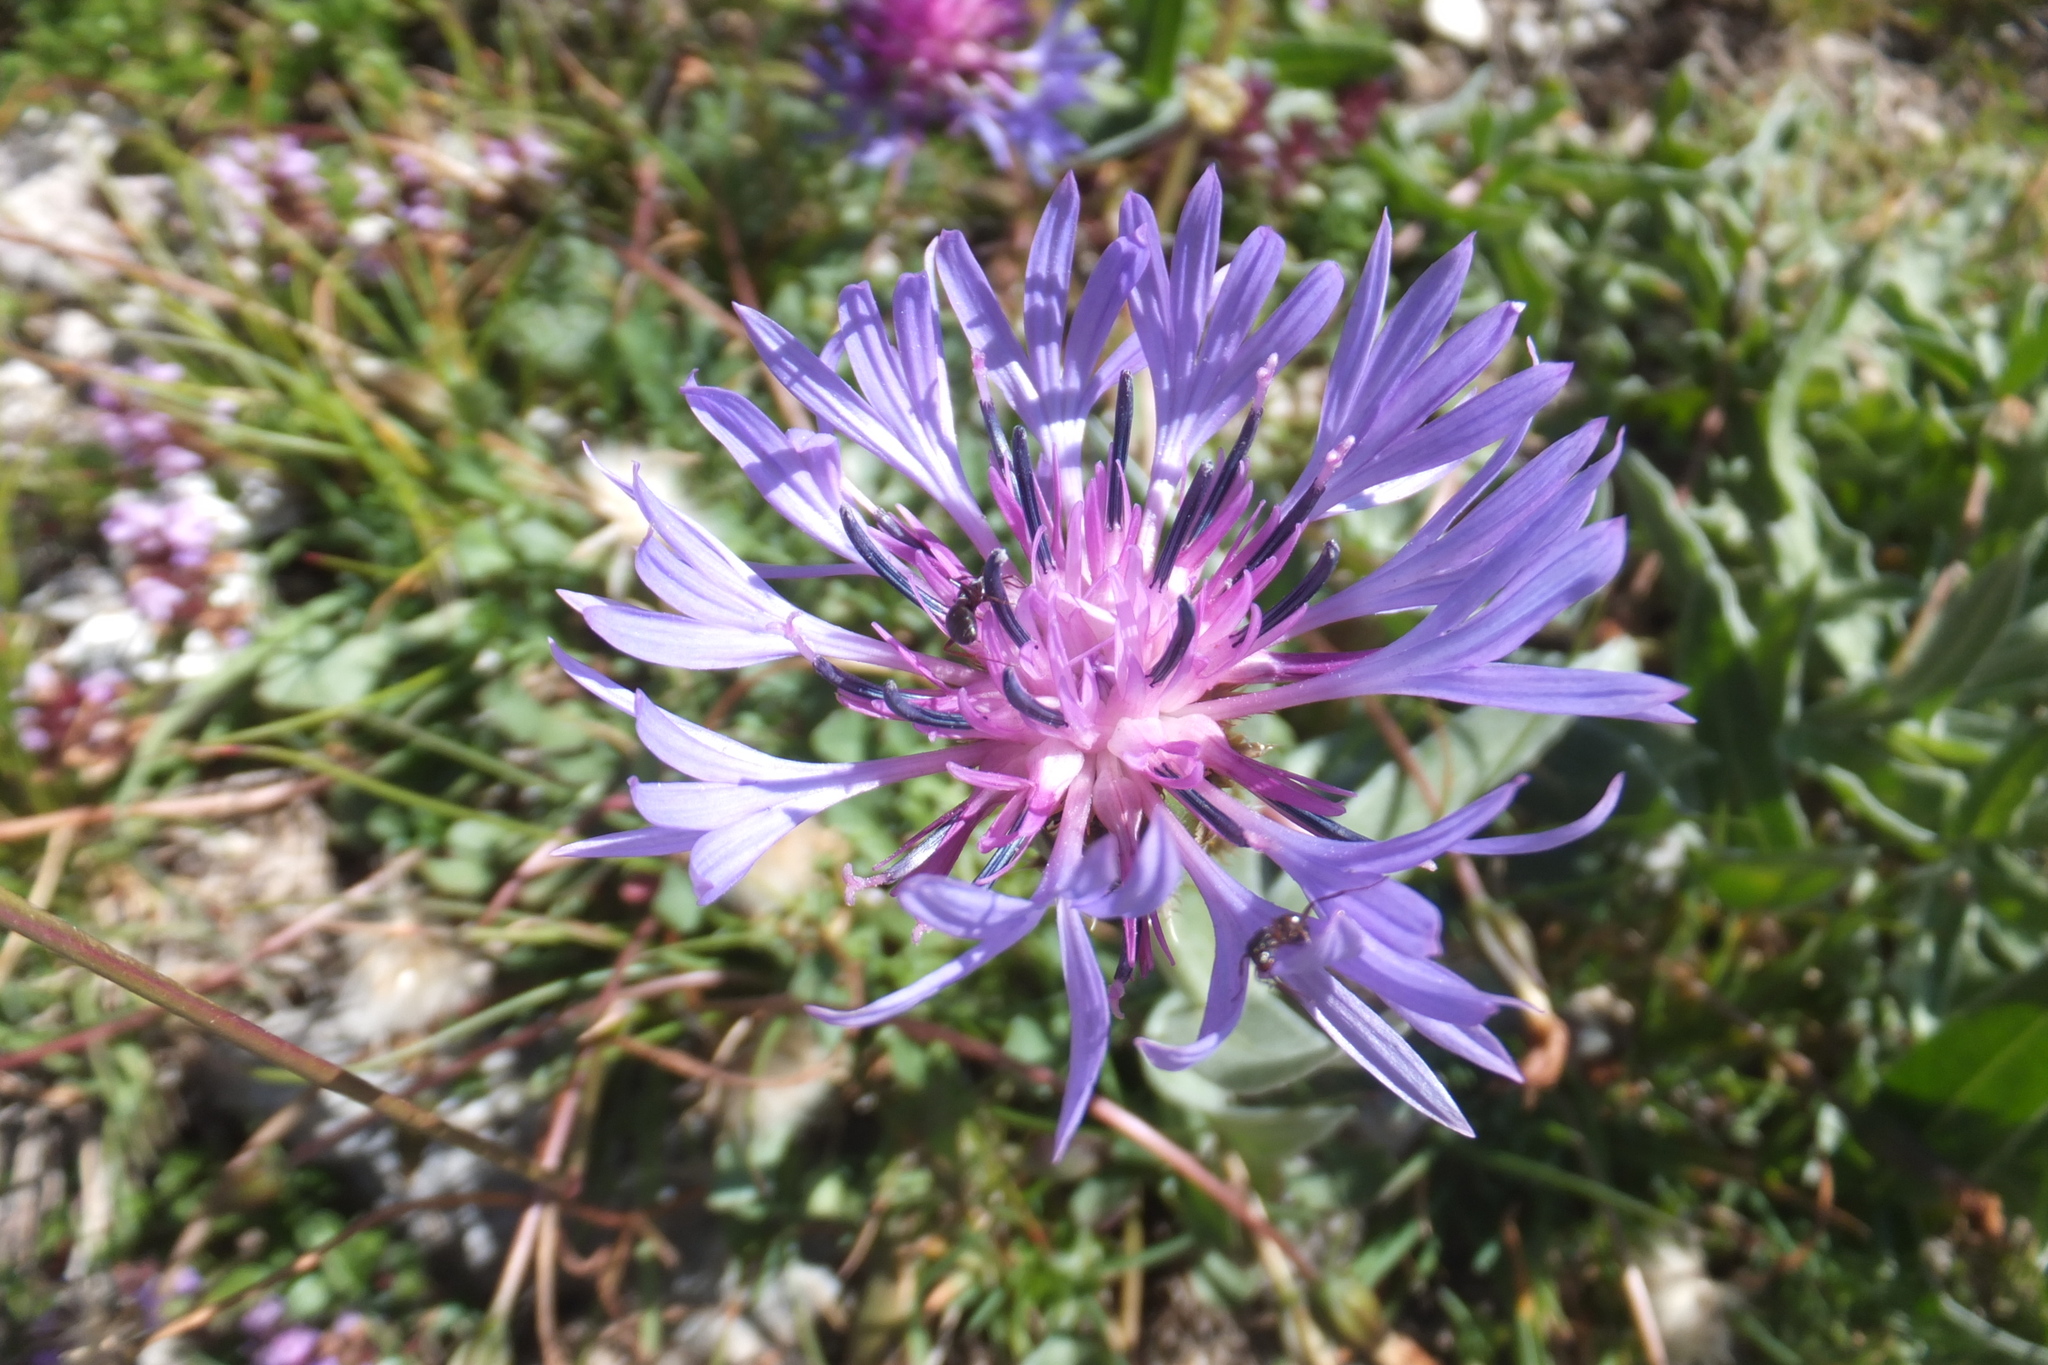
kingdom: Plantae
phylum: Tracheophyta
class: Magnoliopsida
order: Asterales
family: Asteraceae
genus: Centaurea
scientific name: Centaurea triumfettii
